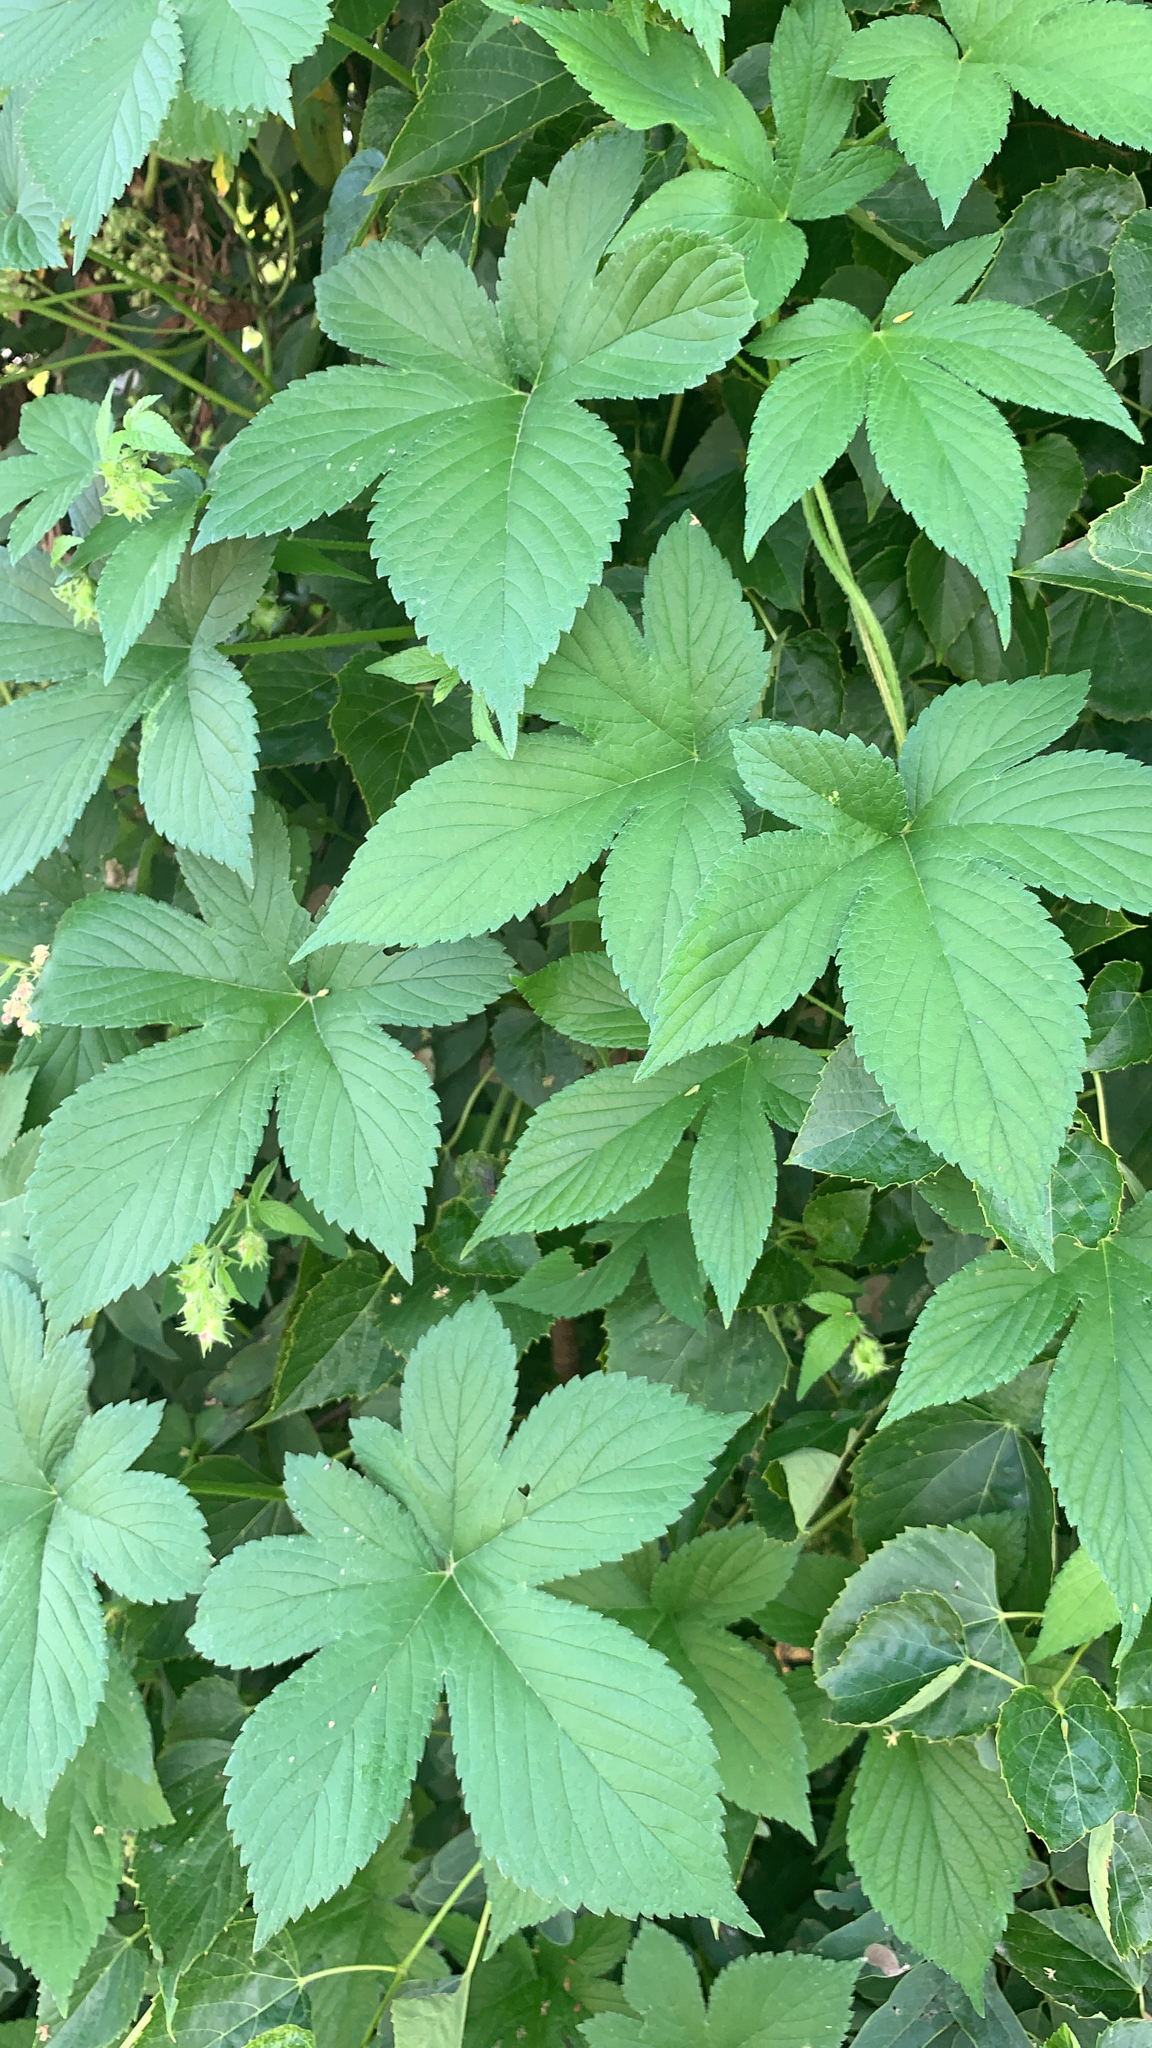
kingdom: Plantae
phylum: Tracheophyta
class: Magnoliopsida
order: Rosales
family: Cannabaceae
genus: Humulus
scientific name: Humulus scandens
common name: Japanese hop
